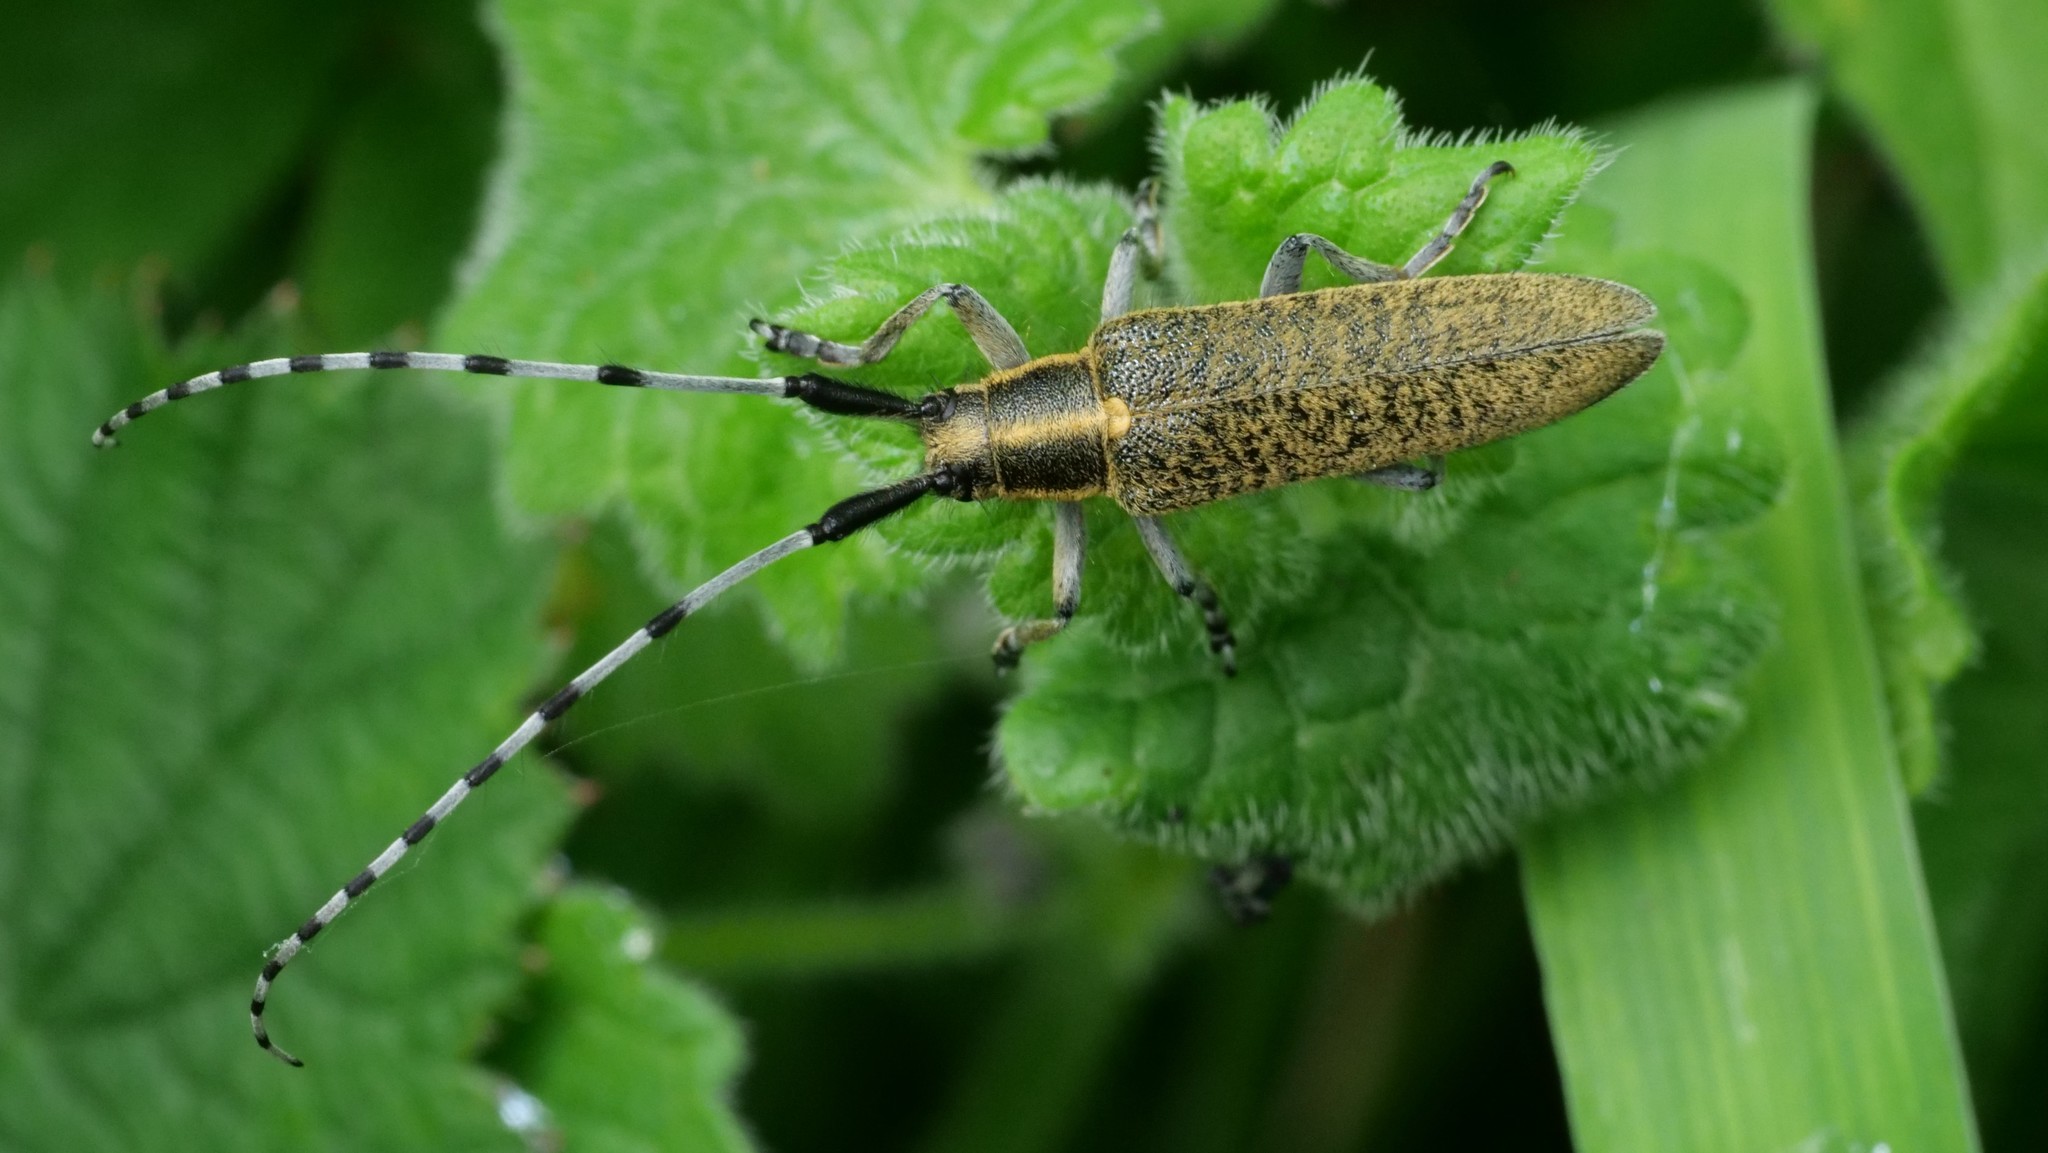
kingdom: Animalia
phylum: Arthropoda
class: Insecta
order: Coleoptera
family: Cerambycidae
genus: Agapanthia
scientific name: Agapanthia villosoviridescens
